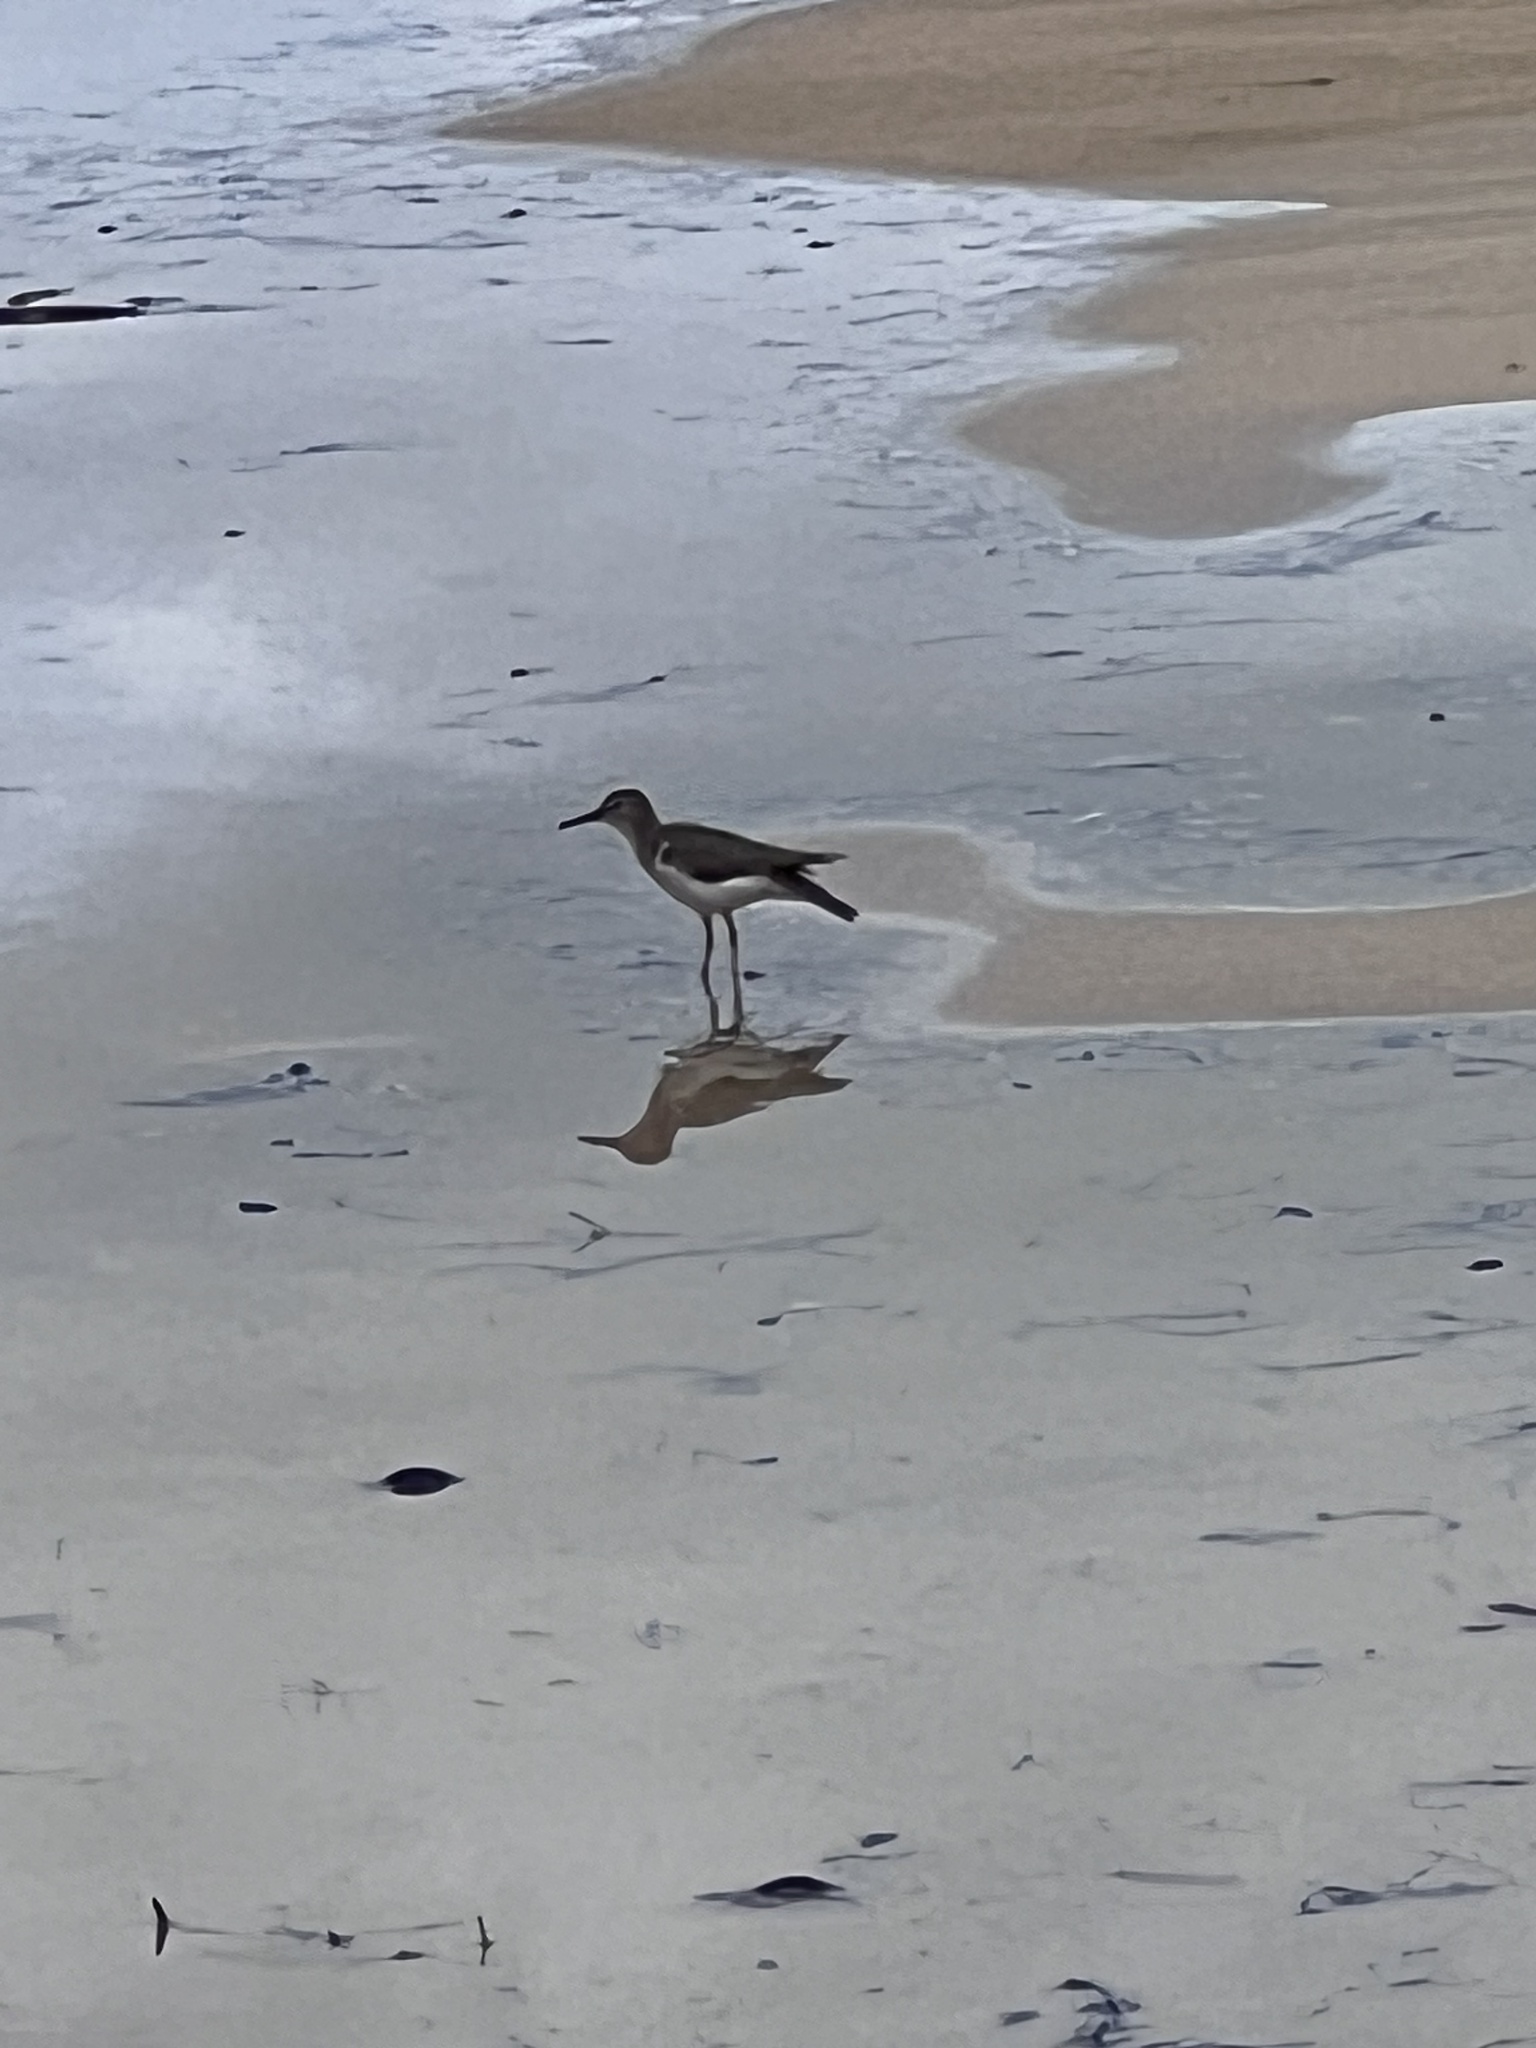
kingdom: Animalia
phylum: Chordata
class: Aves
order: Charadriiformes
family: Scolopacidae
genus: Actitis
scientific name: Actitis macularius
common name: Spotted sandpiper
